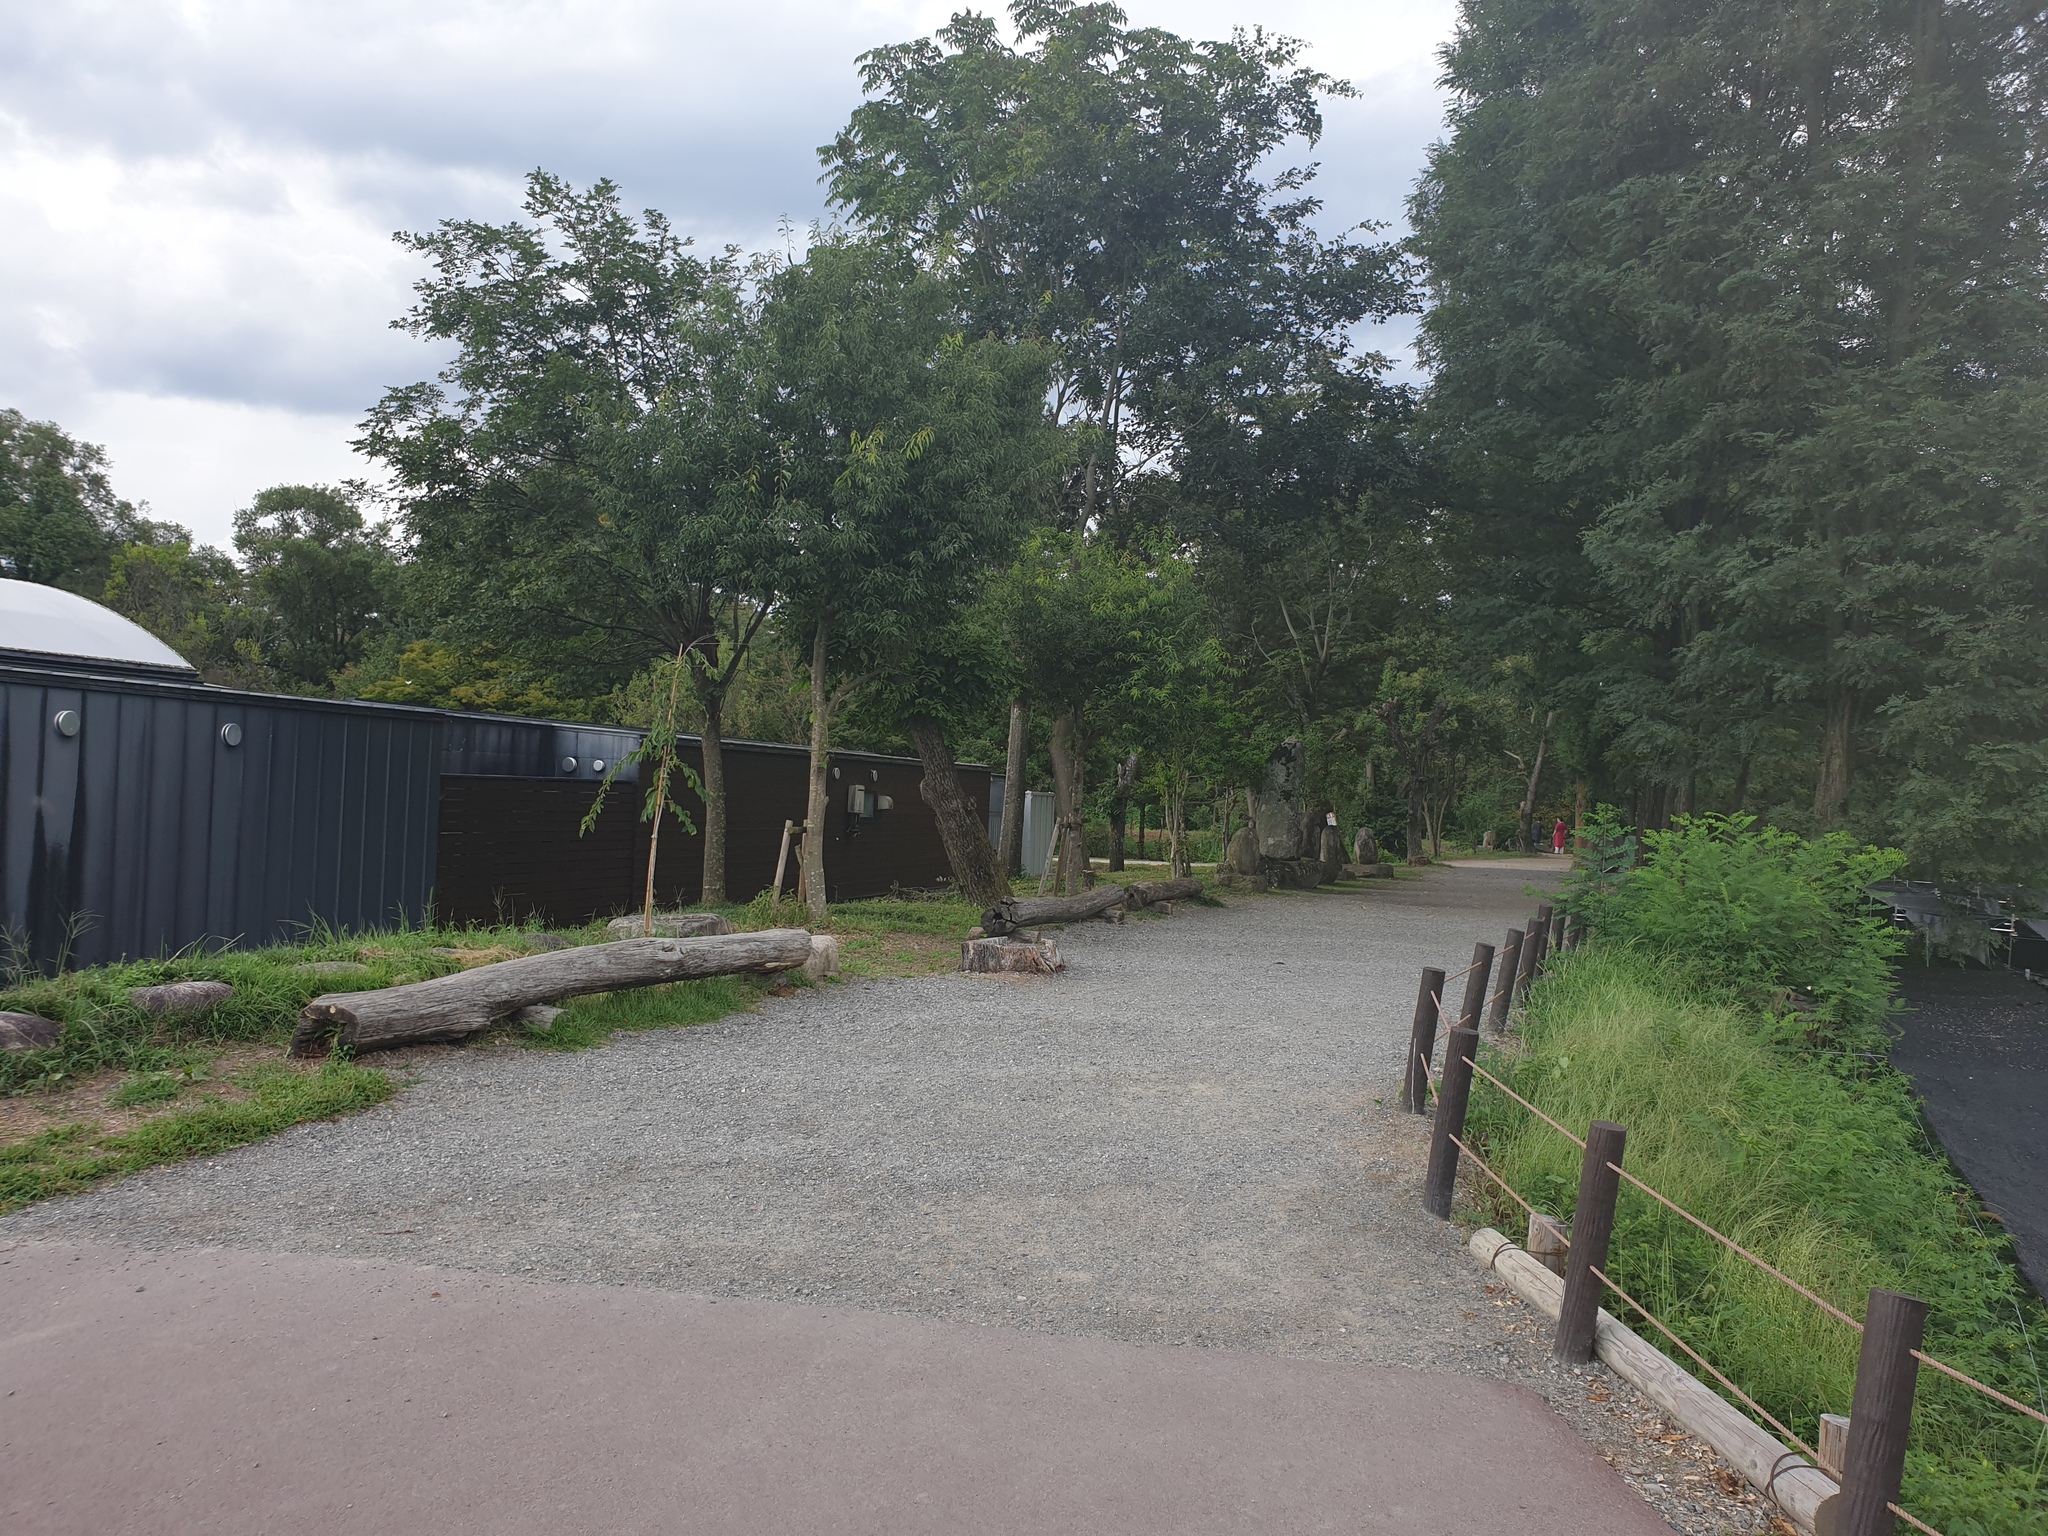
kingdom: Animalia
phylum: Arthropoda
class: Arachnida
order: Araneae
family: Araneidae
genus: Trichonephila
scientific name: Trichonephila clavata
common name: Jorō spider
